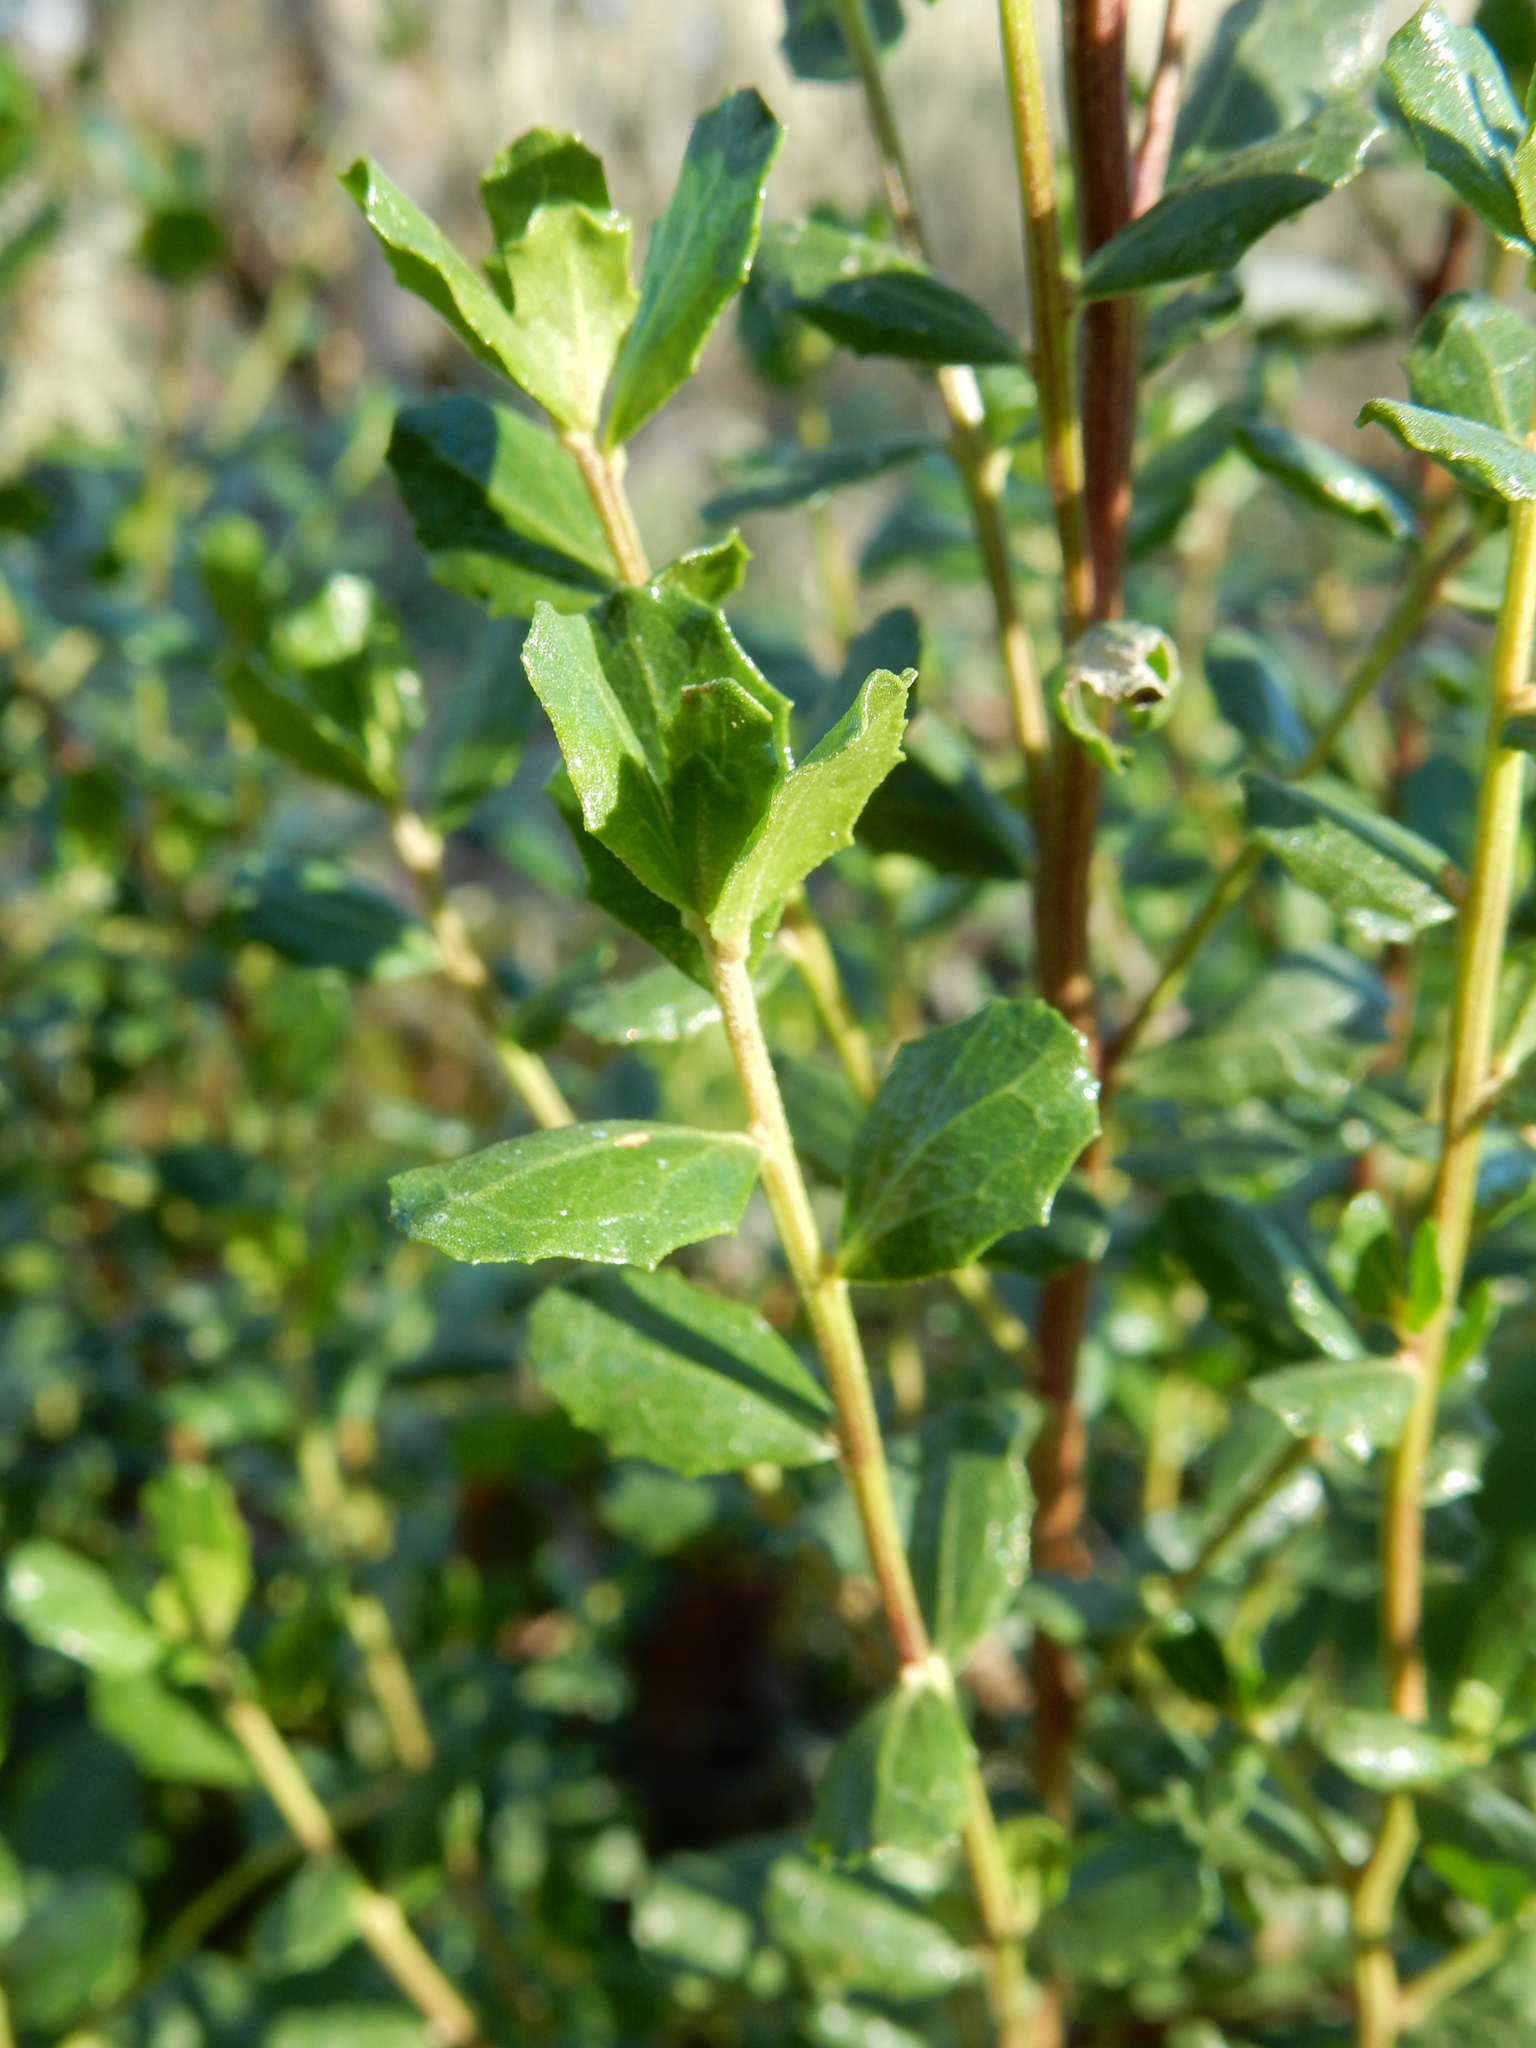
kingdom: Plantae
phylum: Tracheophyta
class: Magnoliopsida
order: Asterales
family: Asteraceae
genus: Baccharis
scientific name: Baccharis pilularis
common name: Coyotebrush
